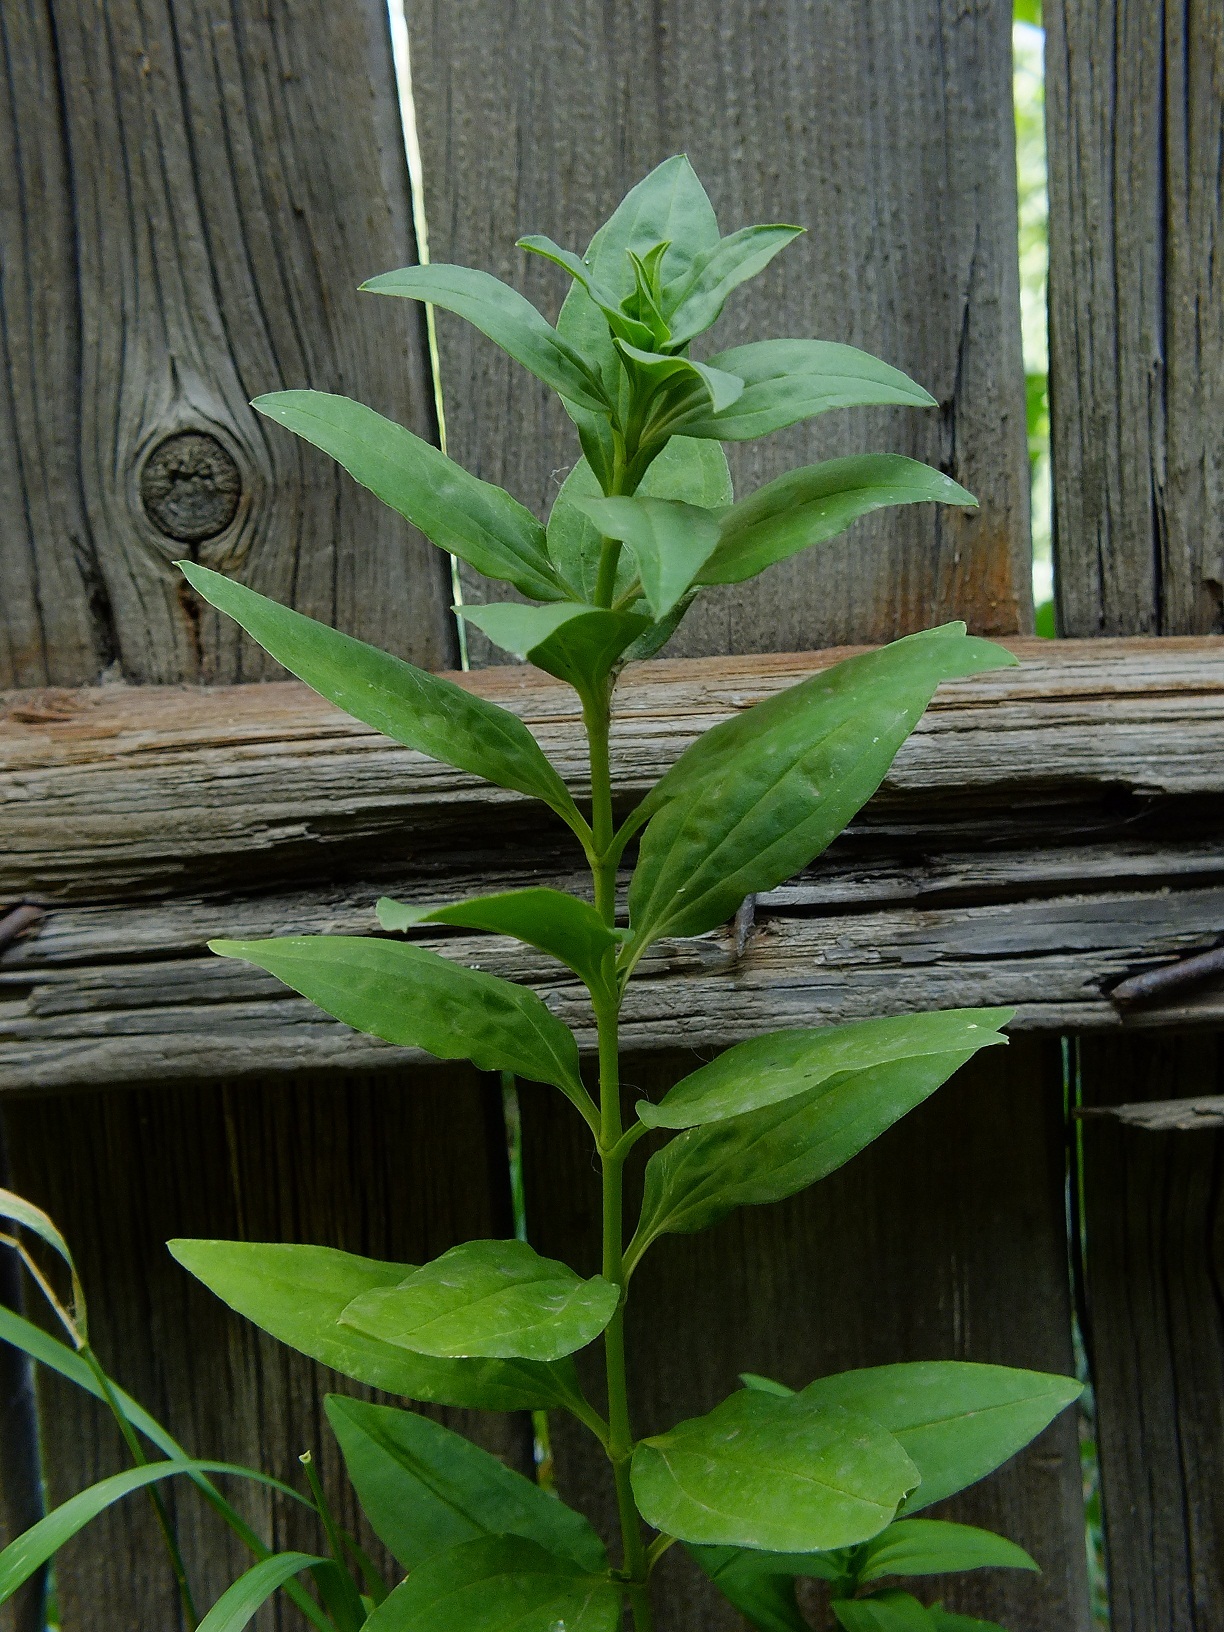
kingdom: Plantae
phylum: Tracheophyta
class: Magnoliopsida
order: Caryophyllales
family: Caryophyllaceae
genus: Saponaria
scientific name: Saponaria officinalis
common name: Soapwort
